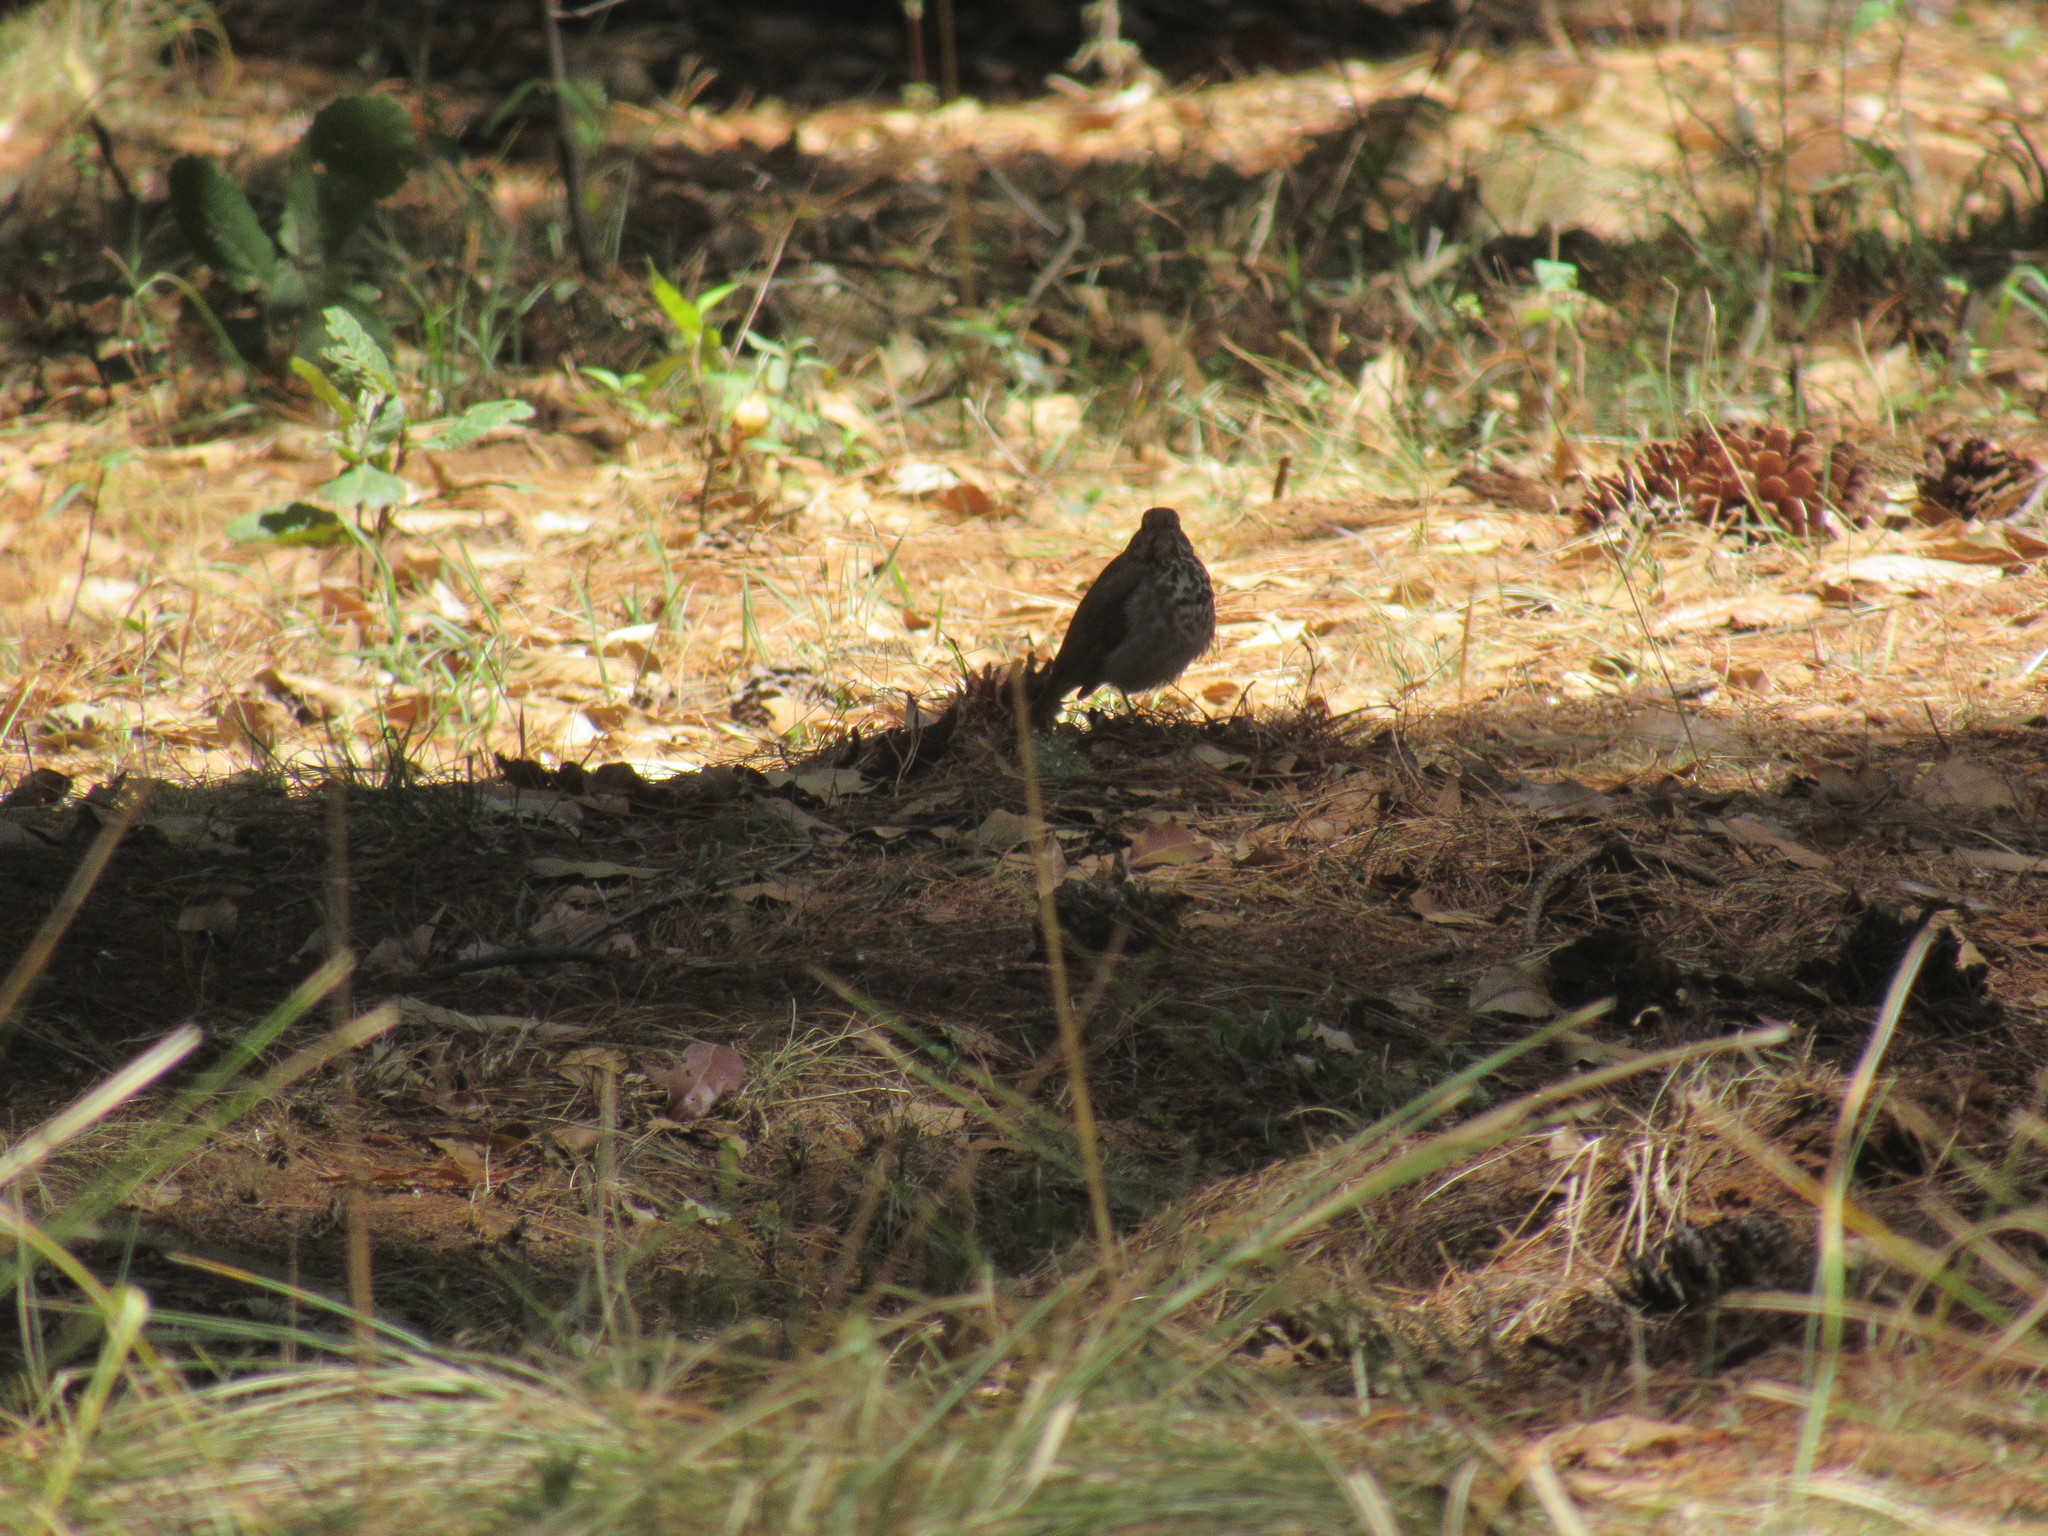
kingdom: Animalia
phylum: Chordata
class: Aves
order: Passeriformes
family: Turdidae
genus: Catharus
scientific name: Catharus guttatus
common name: Hermit thrush
